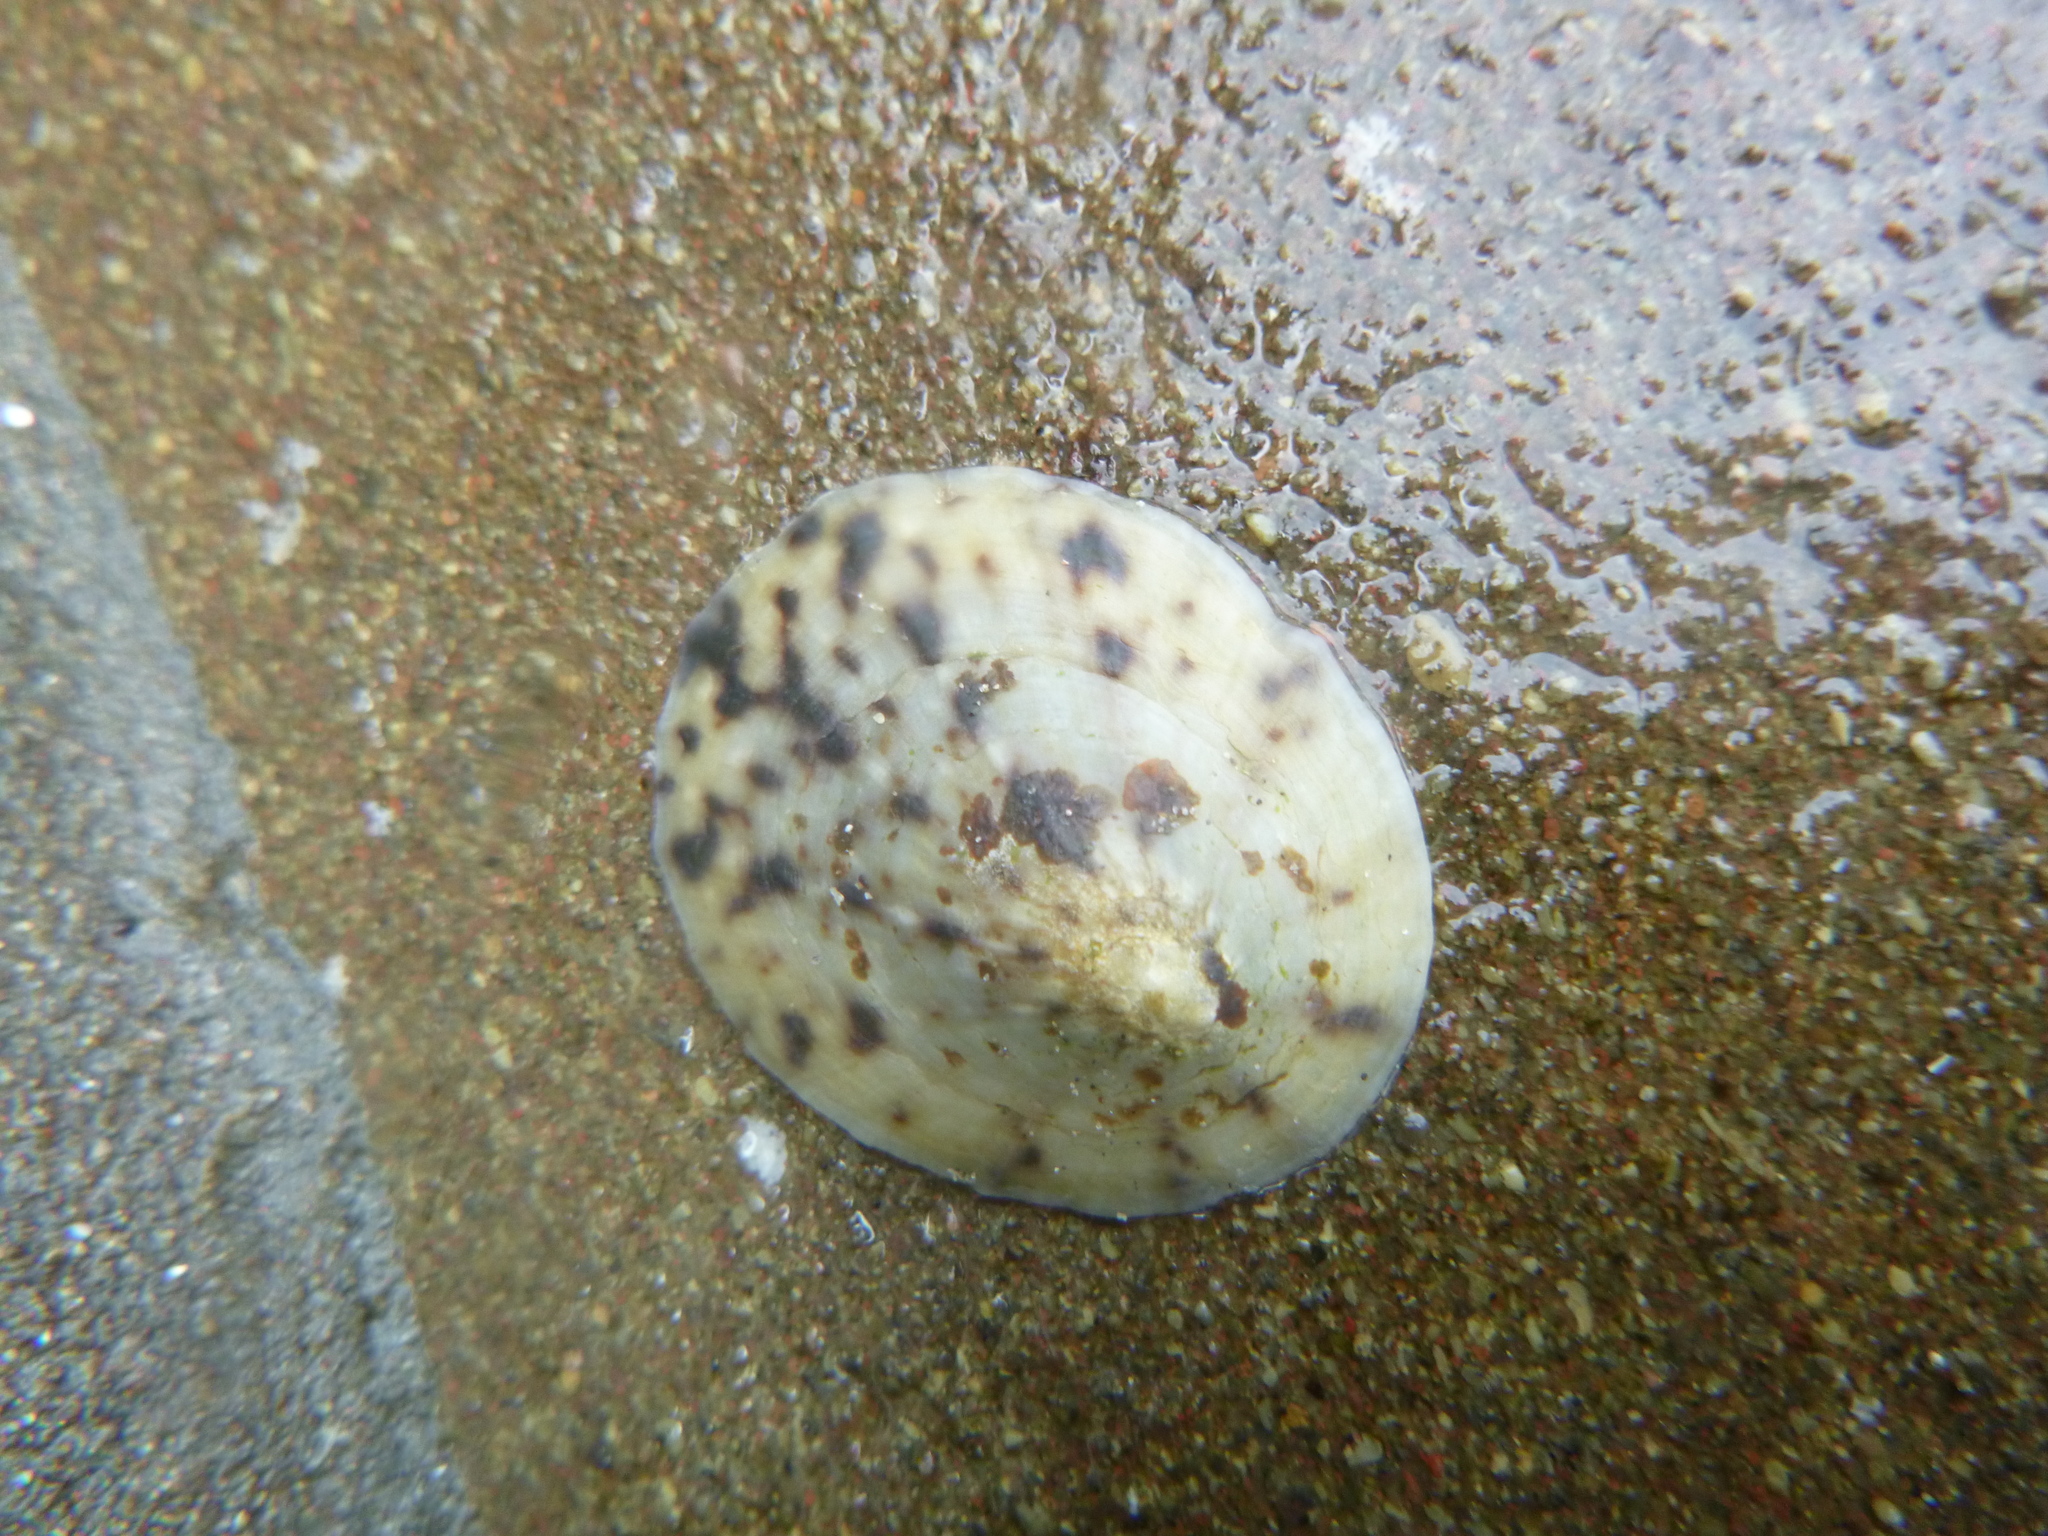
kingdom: Animalia
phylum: Mollusca
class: Gastropoda
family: Nacellidae
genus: Cellana
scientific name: Cellana radians
